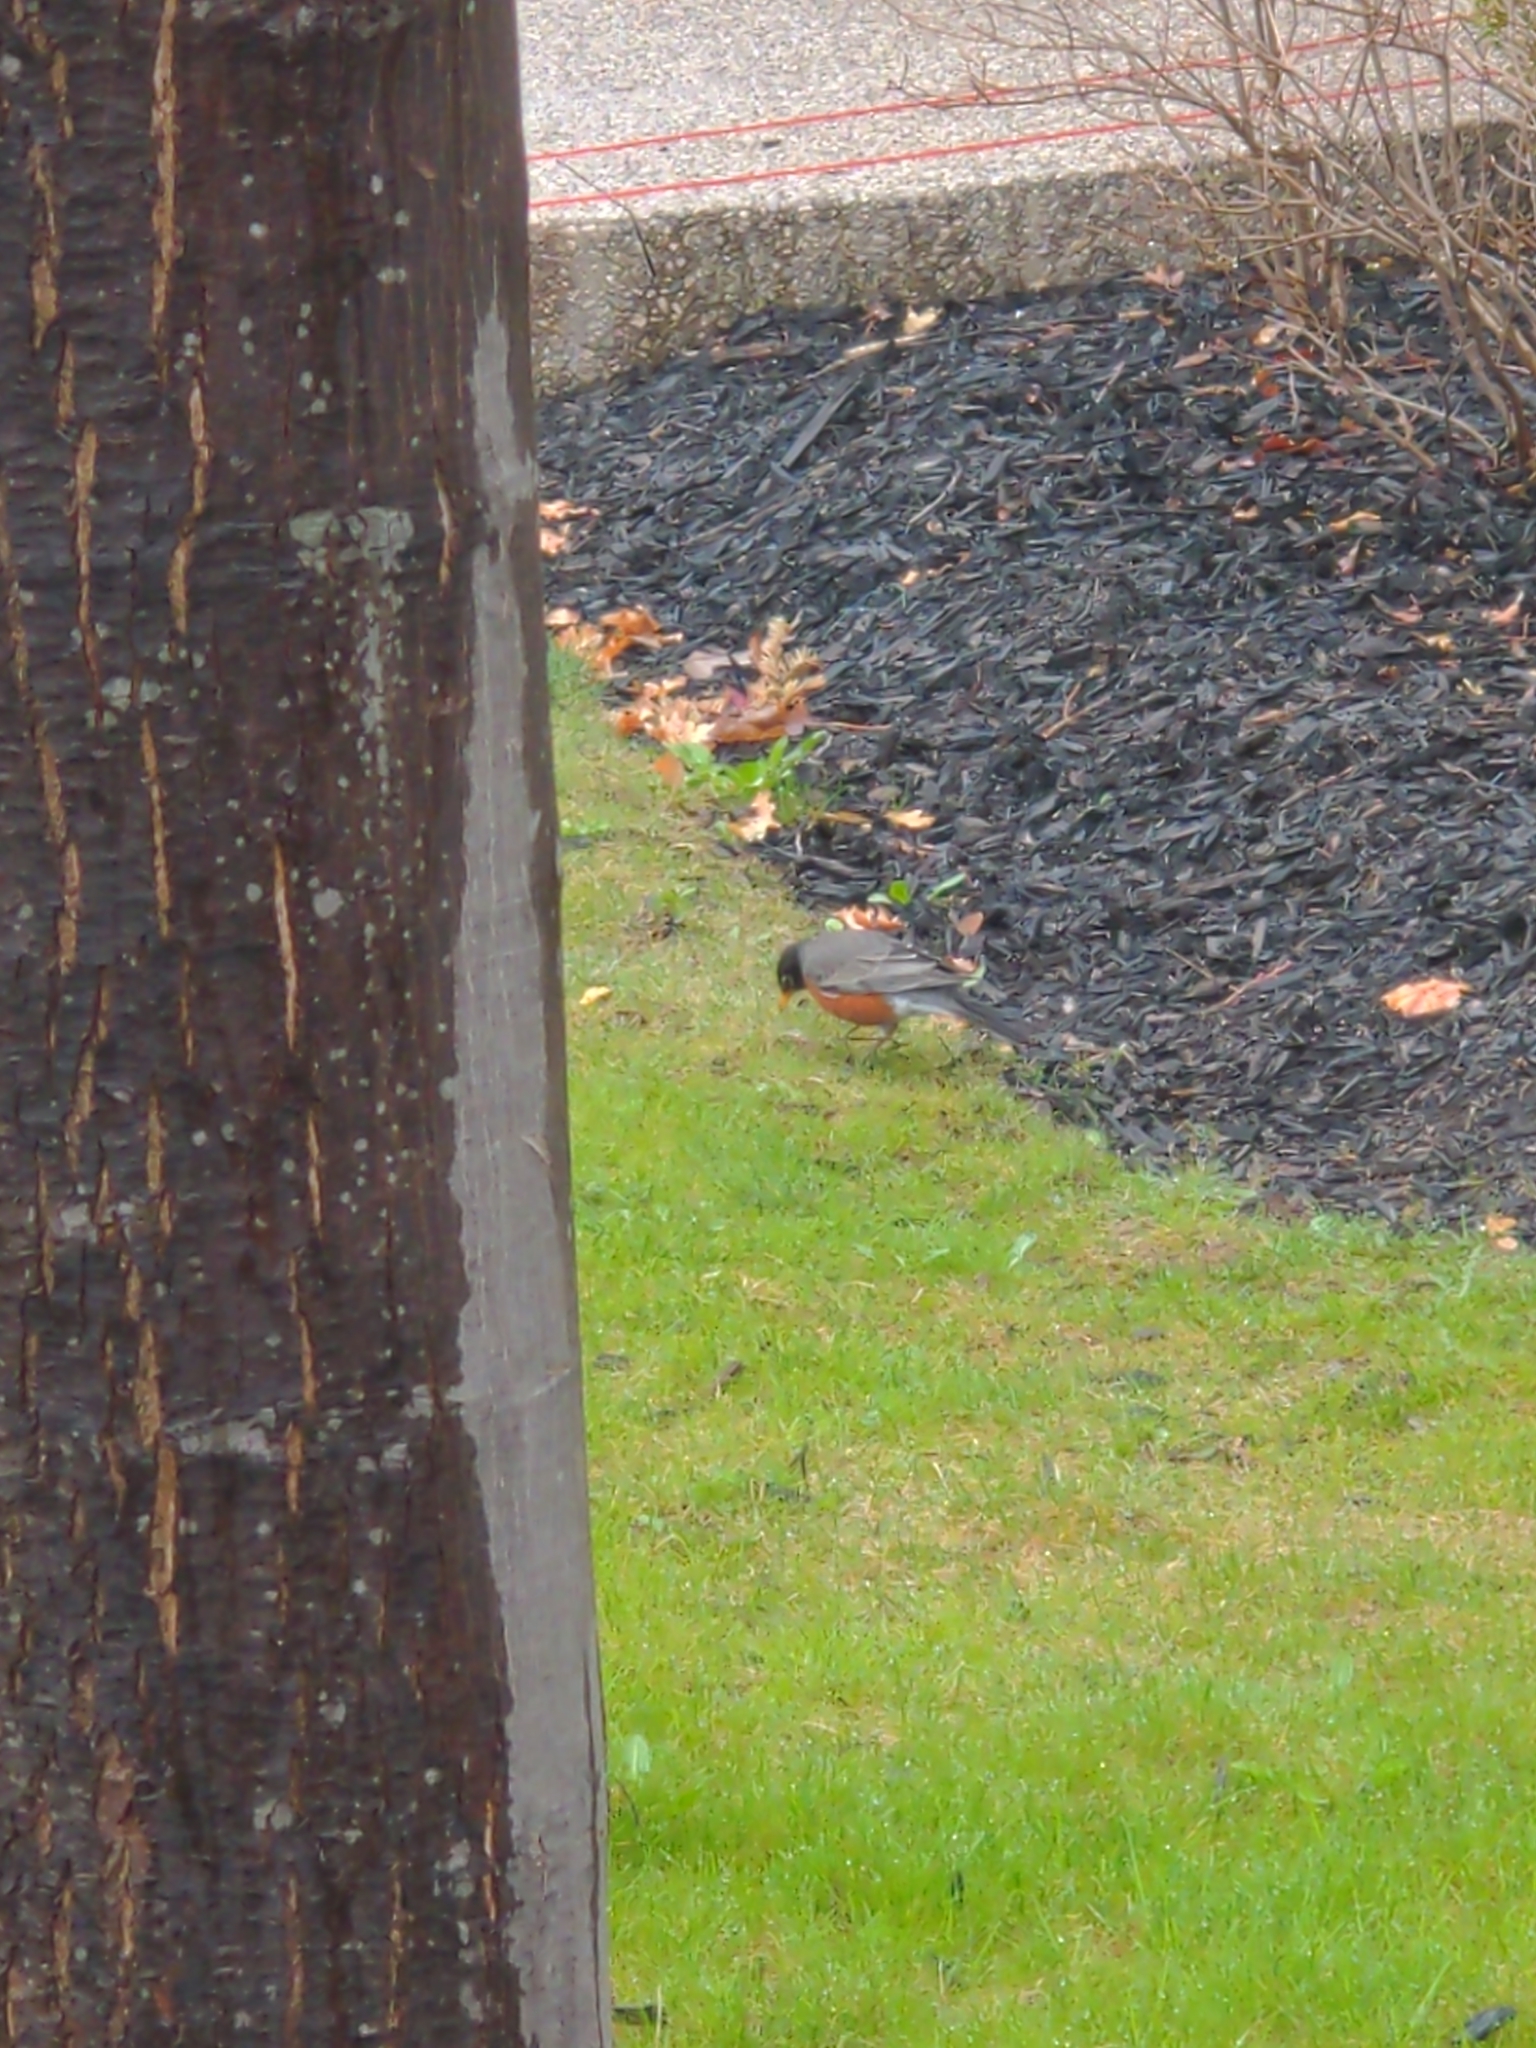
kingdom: Animalia
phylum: Chordata
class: Aves
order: Passeriformes
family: Turdidae
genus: Turdus
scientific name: Turdus migratorius
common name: American robin
